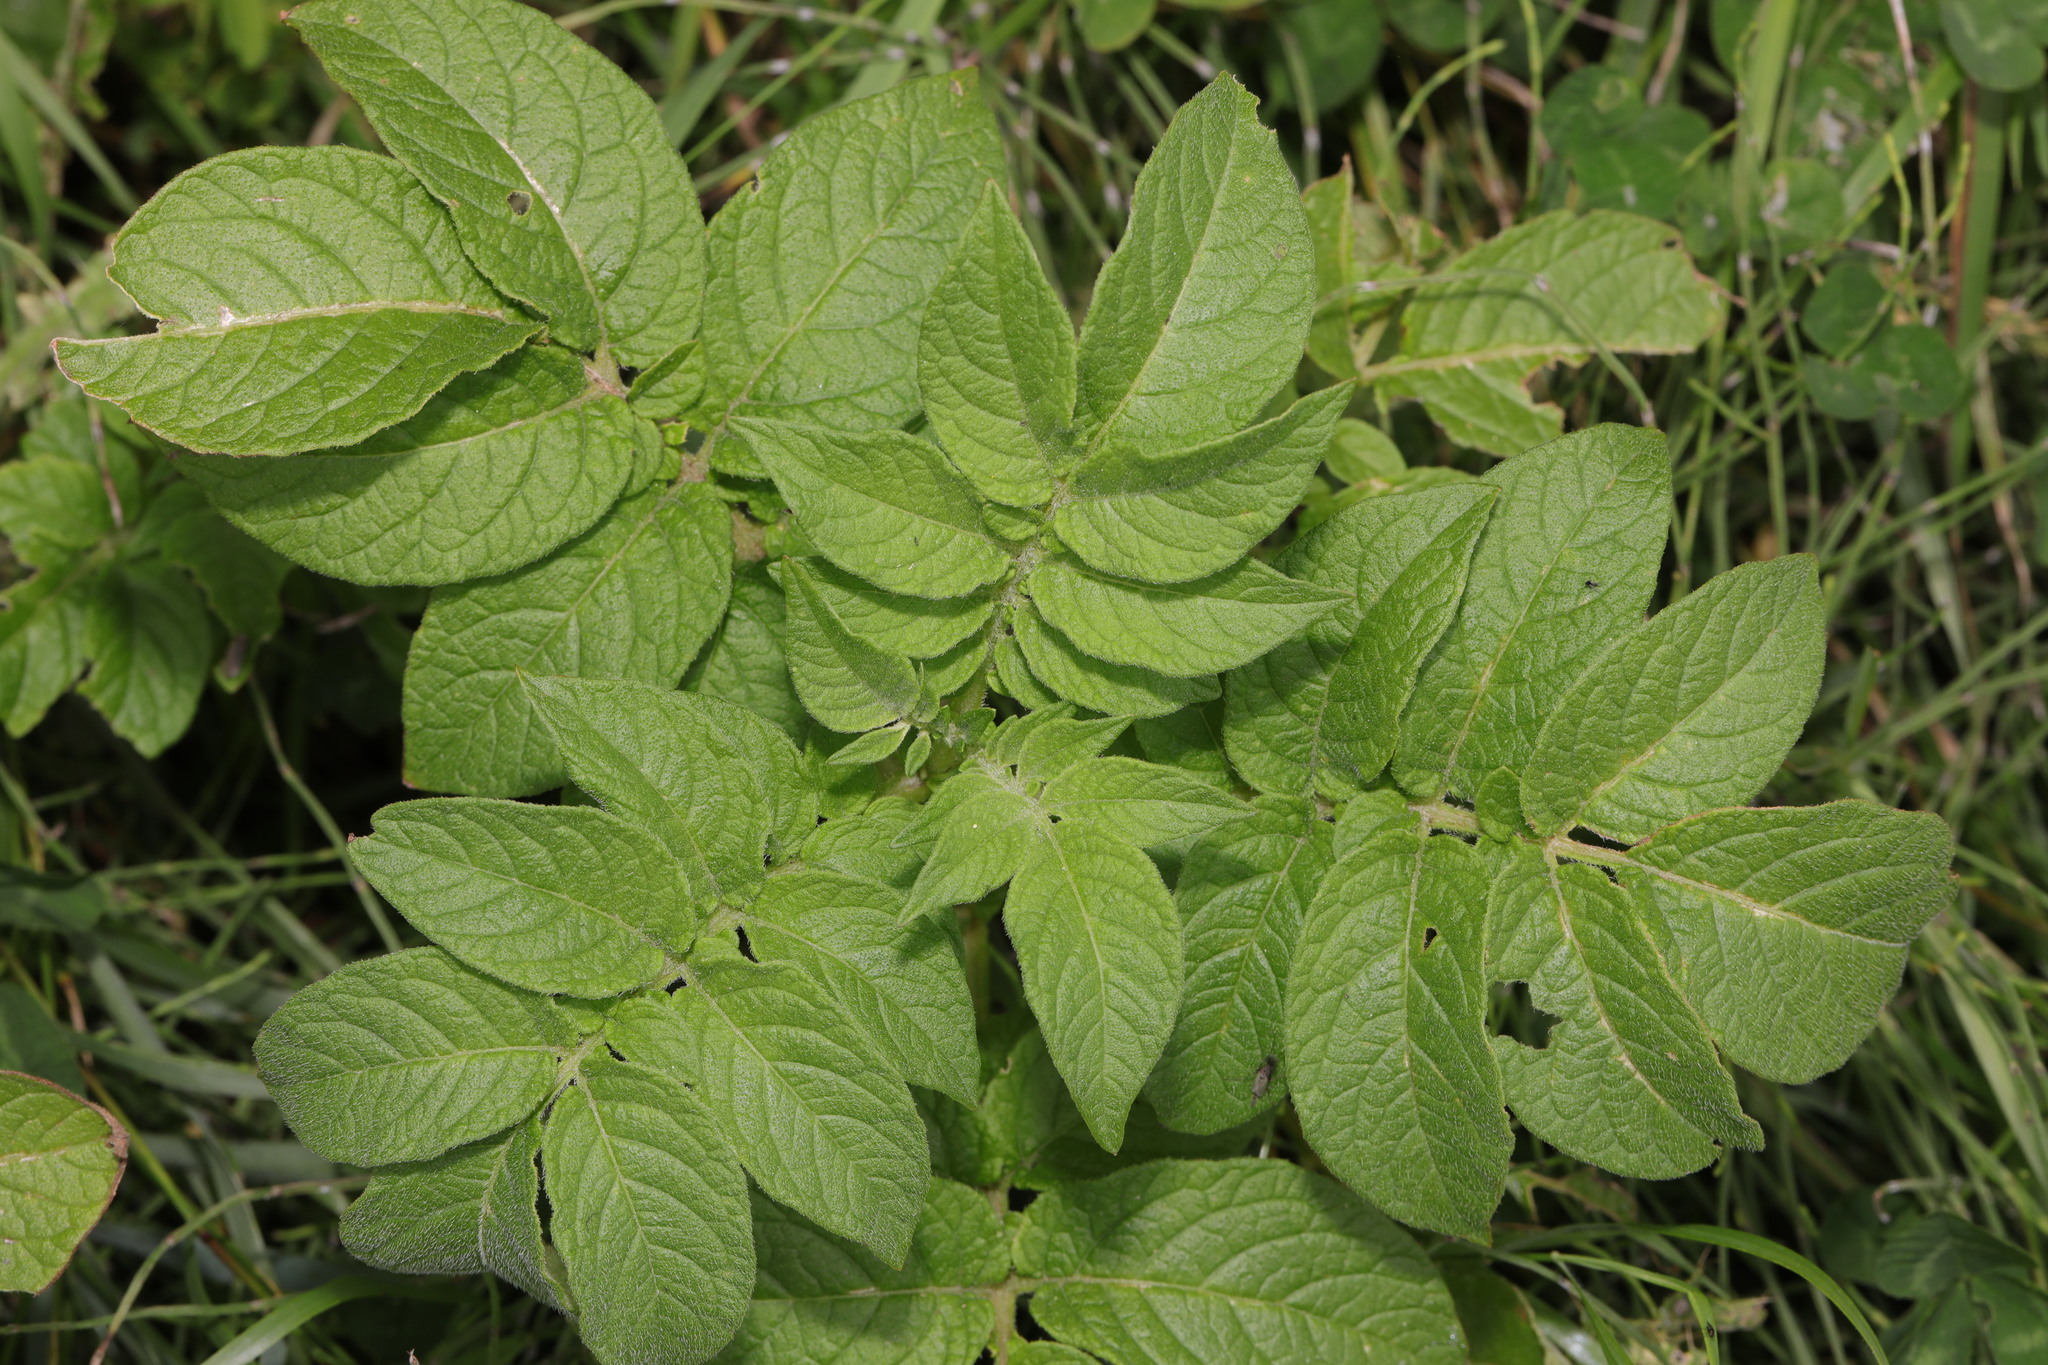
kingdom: Plantae
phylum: Tracheophyta
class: Magnoliopsida
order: Solanales
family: Solanaceae
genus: Solanum
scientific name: Solanum tuberosum
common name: Potato
